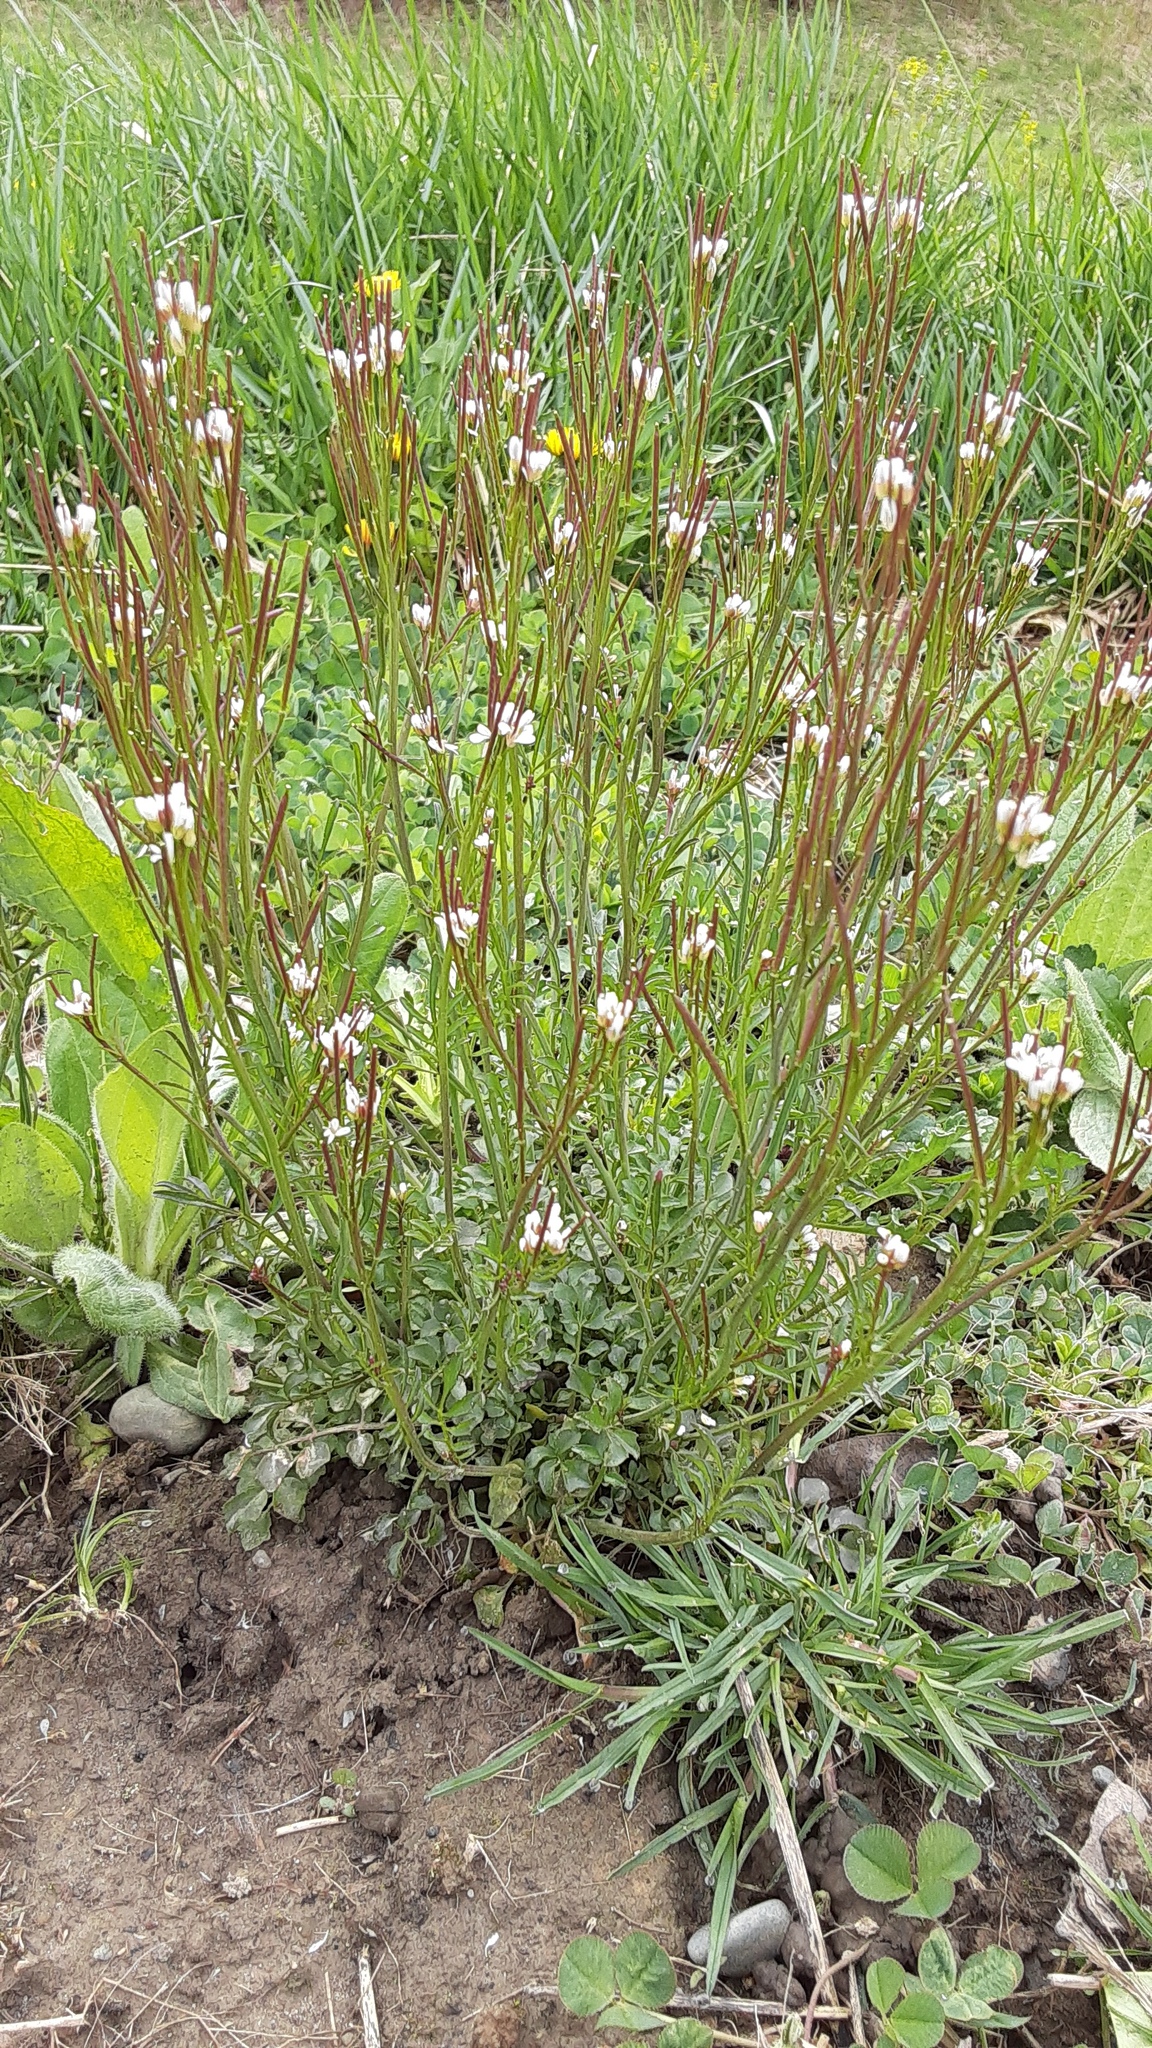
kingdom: Plantae
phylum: Tracheophyta
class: Magnoliopsida
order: Brassicales
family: Brassicaceae
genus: Cardamine
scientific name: Cardamine hirsuta
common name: Hairy bittercress
